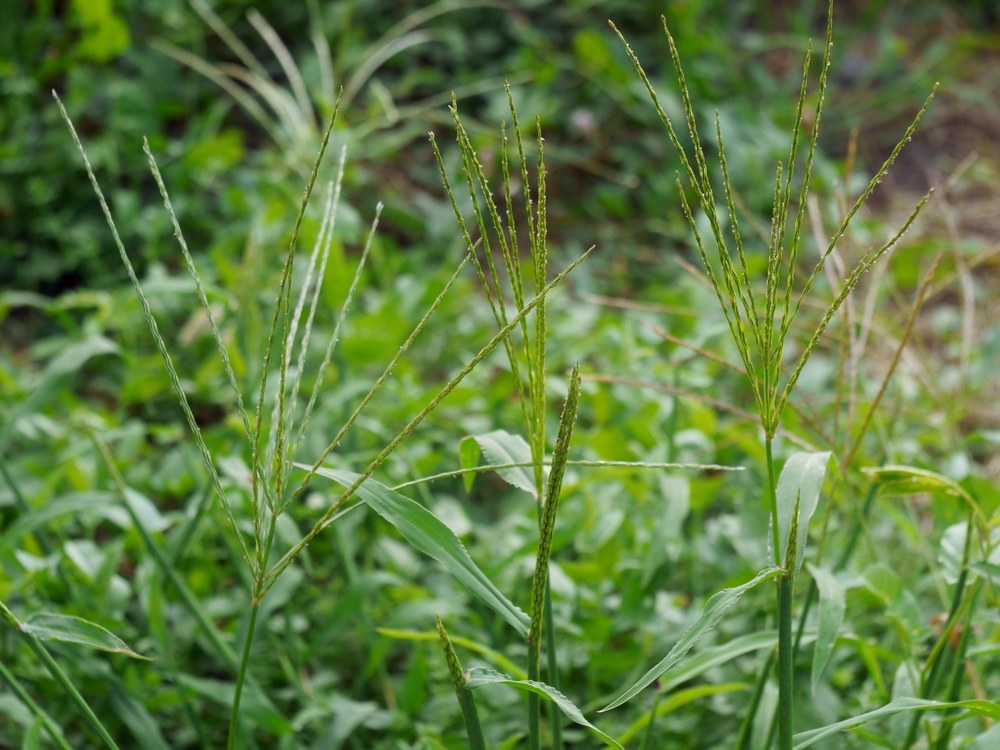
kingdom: Plantae
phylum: Tracheophyta
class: Liliopsida
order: Poales
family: Poaceae
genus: Digitaria
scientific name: Digitaria sanguinalis
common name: Hairy crabgrass
